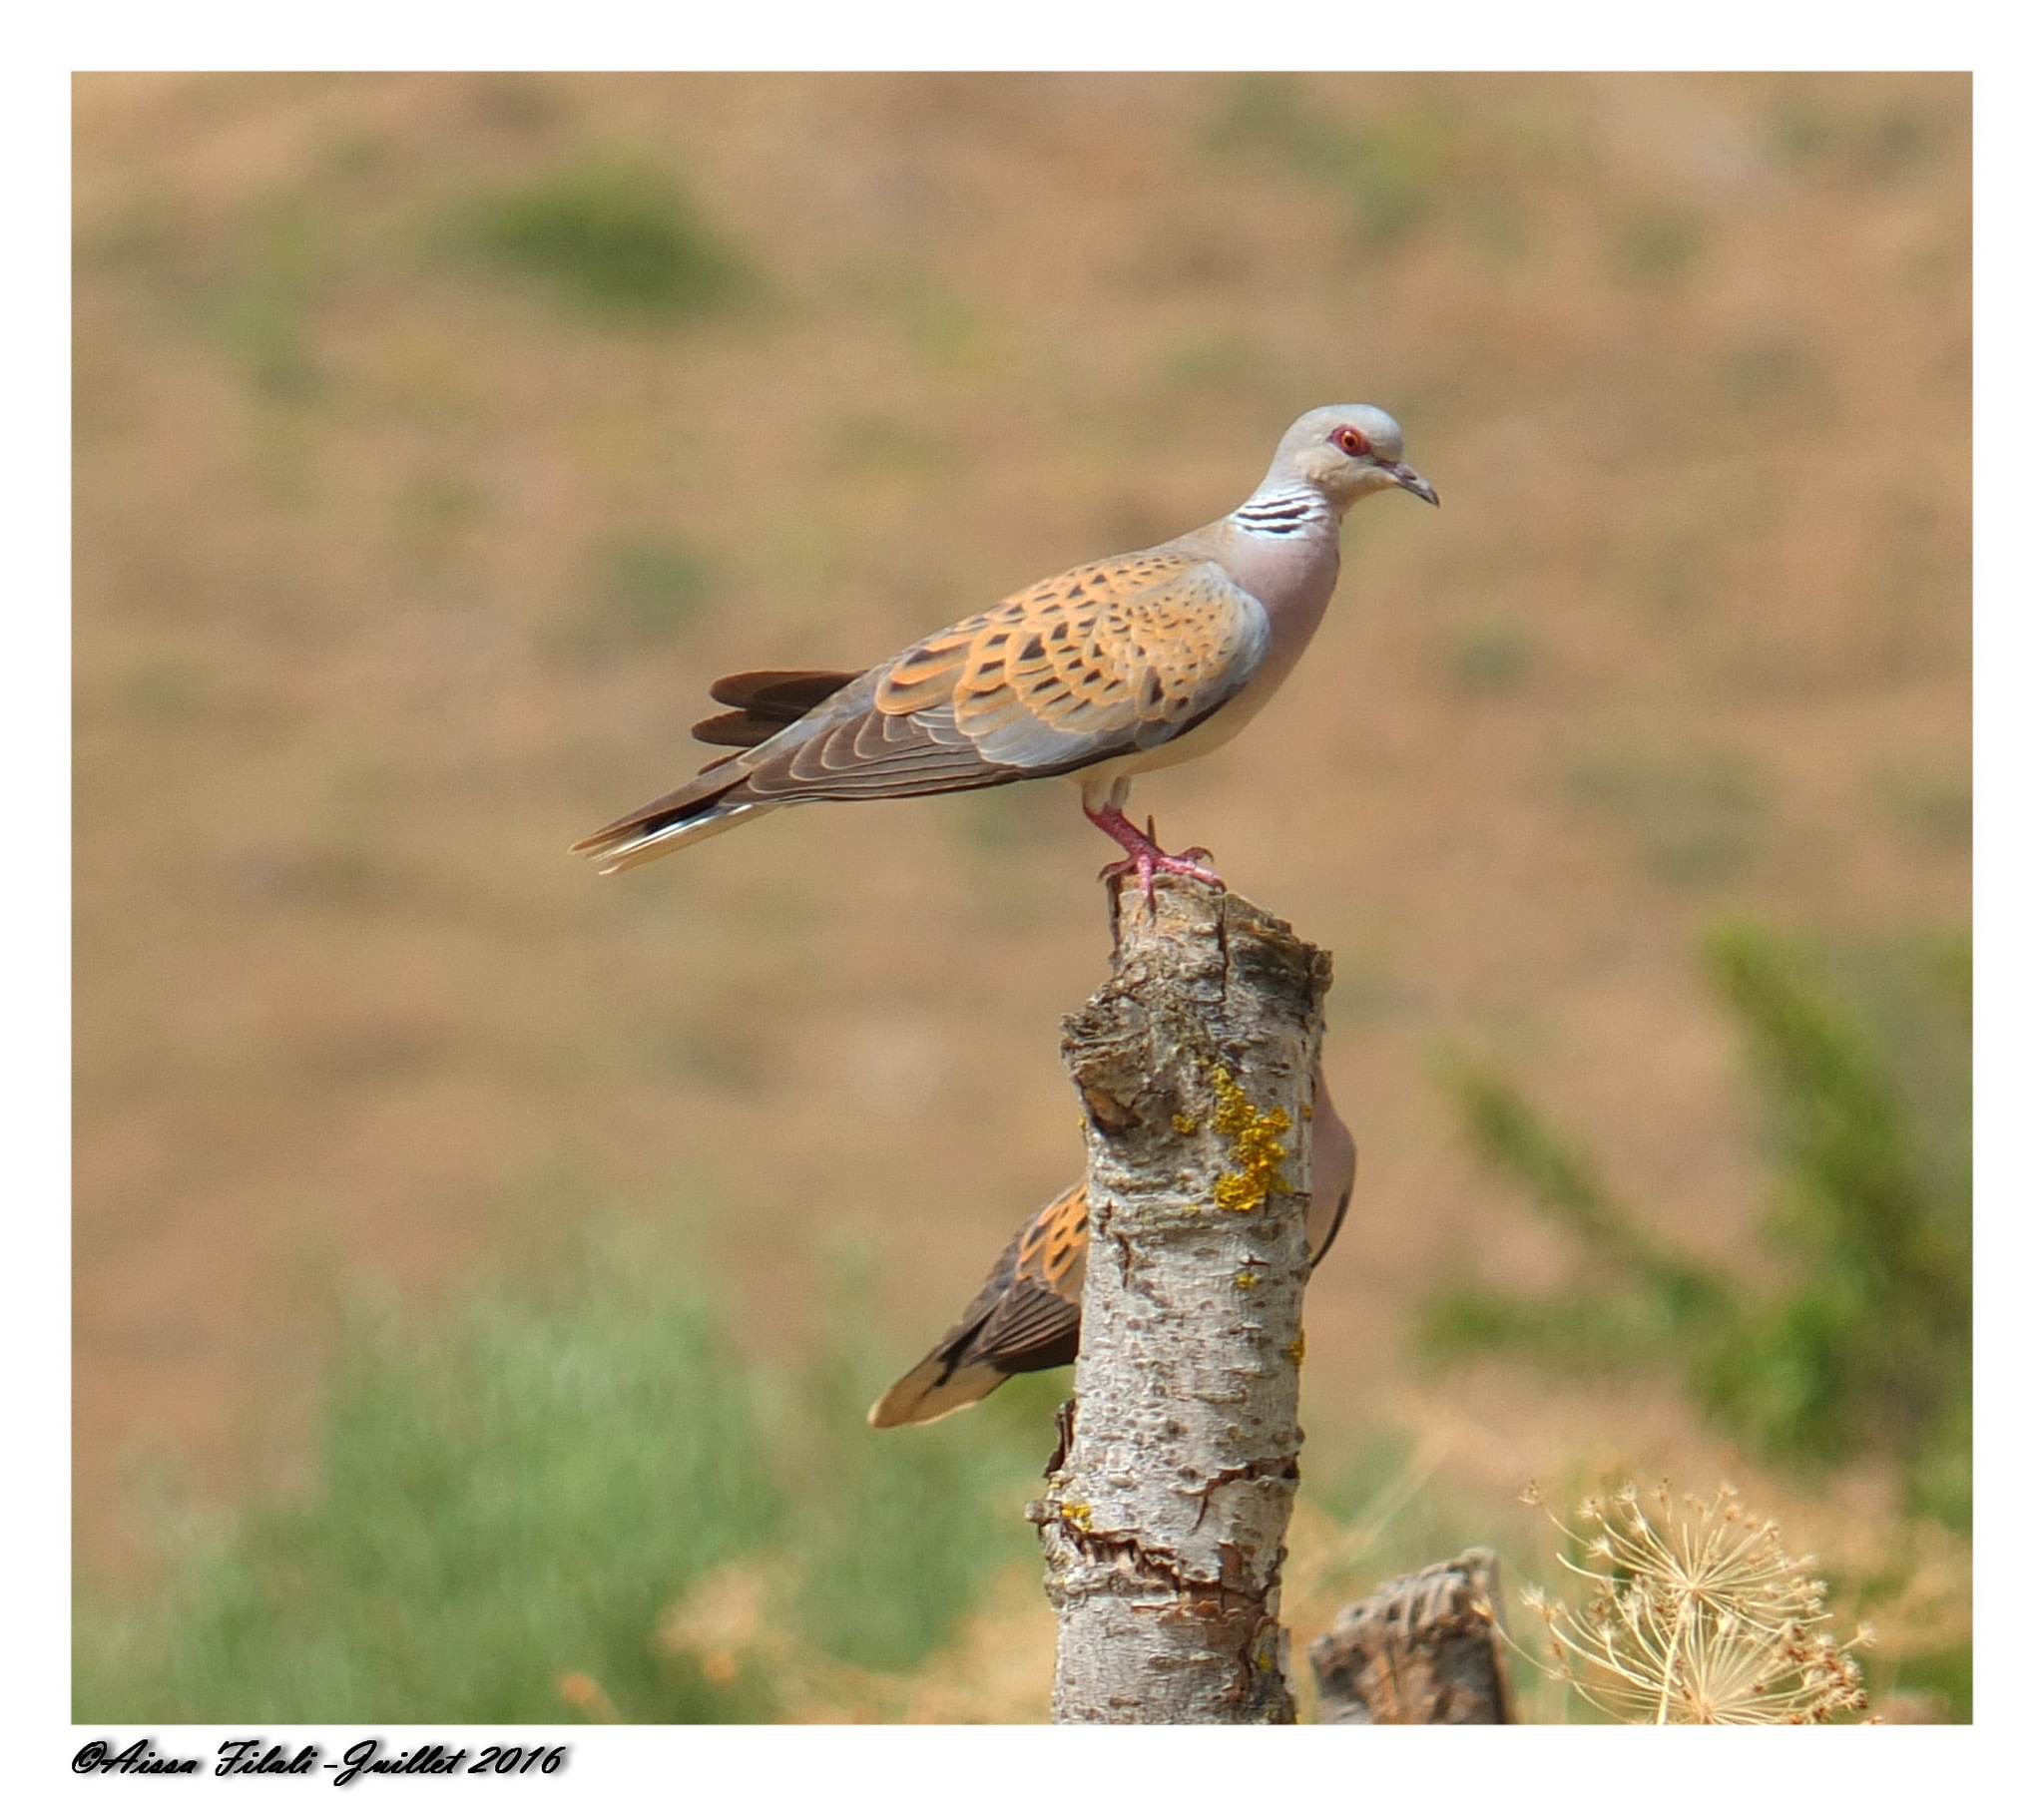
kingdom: Animalia
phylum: Chordata
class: Aves
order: Columbiformes
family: Columbidae
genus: Streptopelia
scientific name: Streptopelia turtur
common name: European turtle dove
